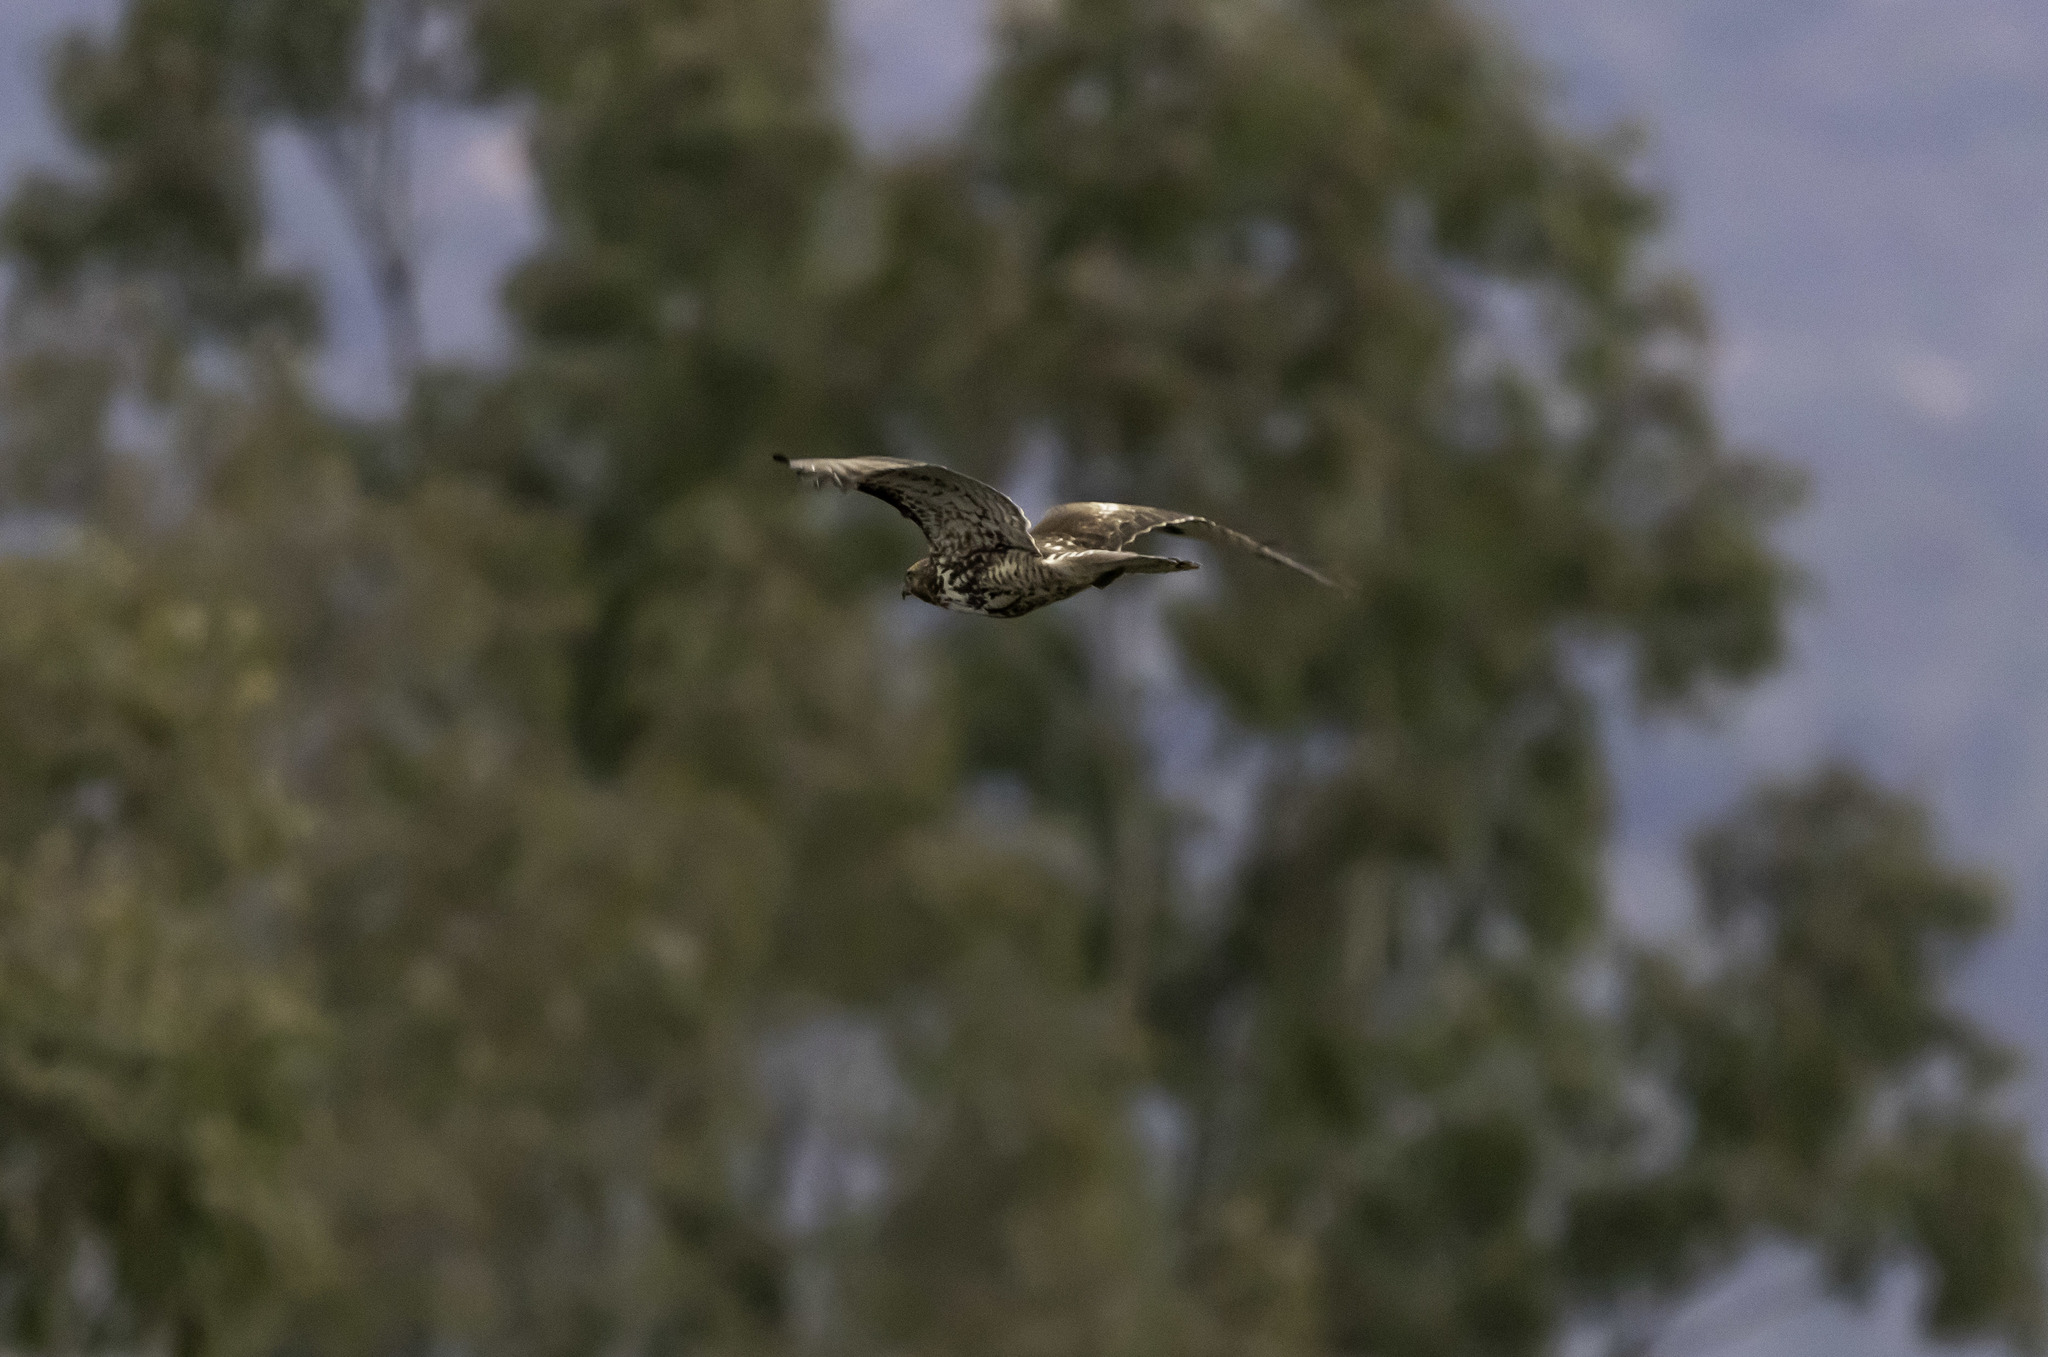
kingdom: Animalia
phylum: Chordata
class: Aves
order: Accipitriformes
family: Accipitridae
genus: Buteo
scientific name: Buteo jamaicensis
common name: Red-tailed hawk
